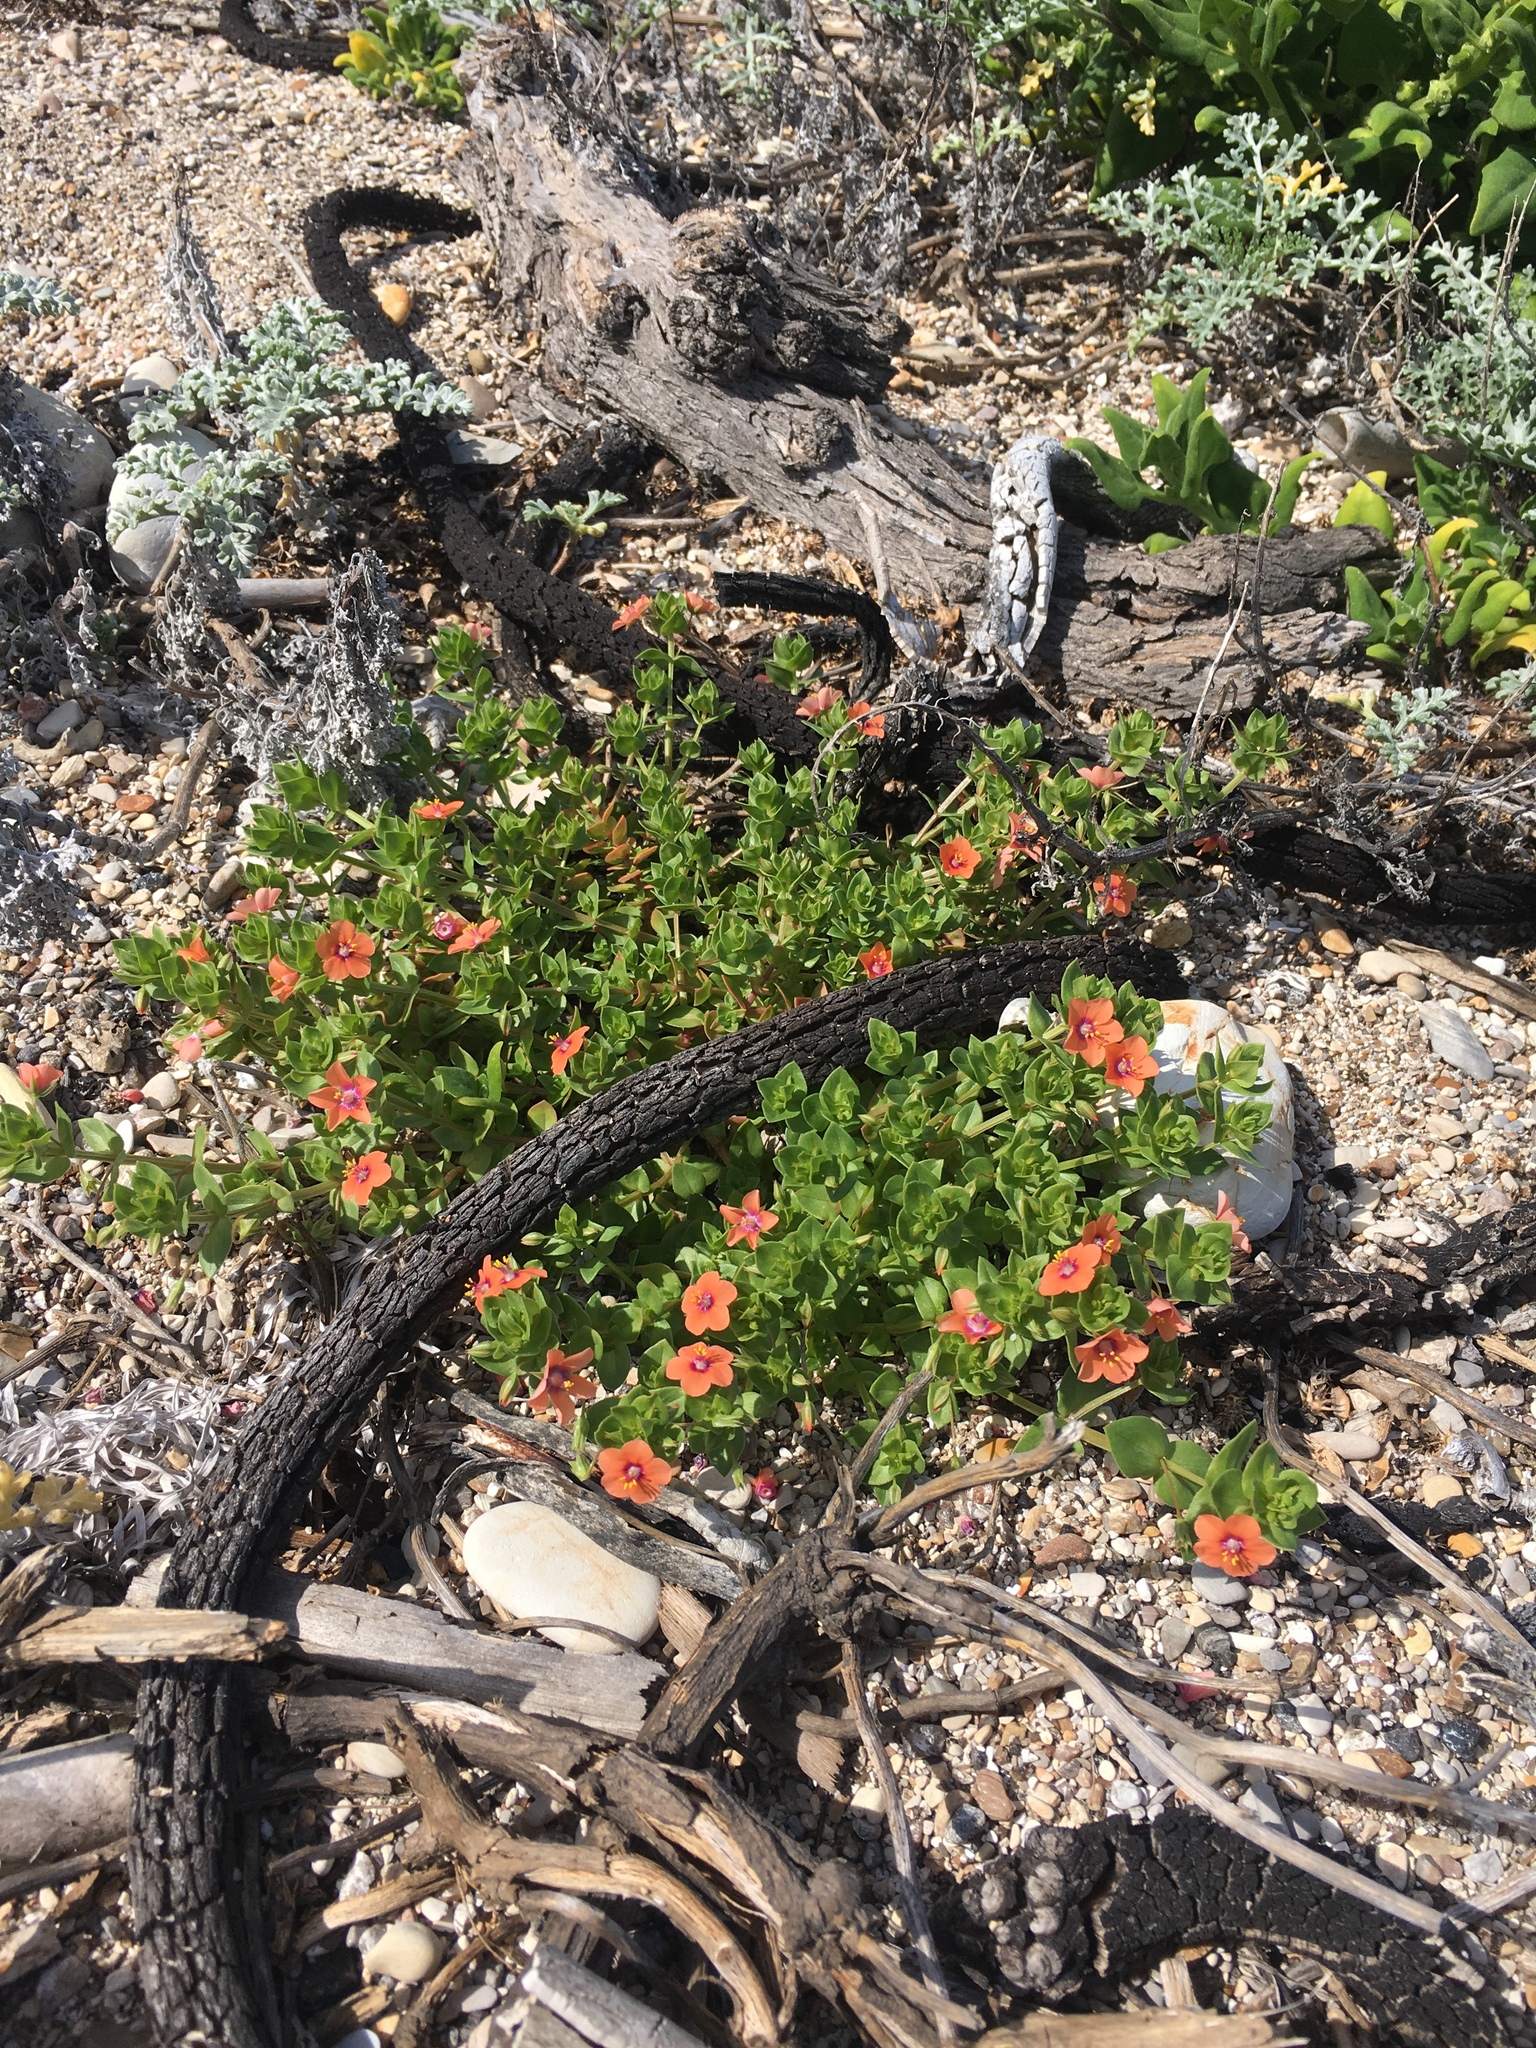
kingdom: Plantae
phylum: Tracheophyta
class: Magnoliopsida
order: Ericales
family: Primulaceae
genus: Lysimachia
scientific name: Lysimachia arvensis
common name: Scarlet pimpernel
